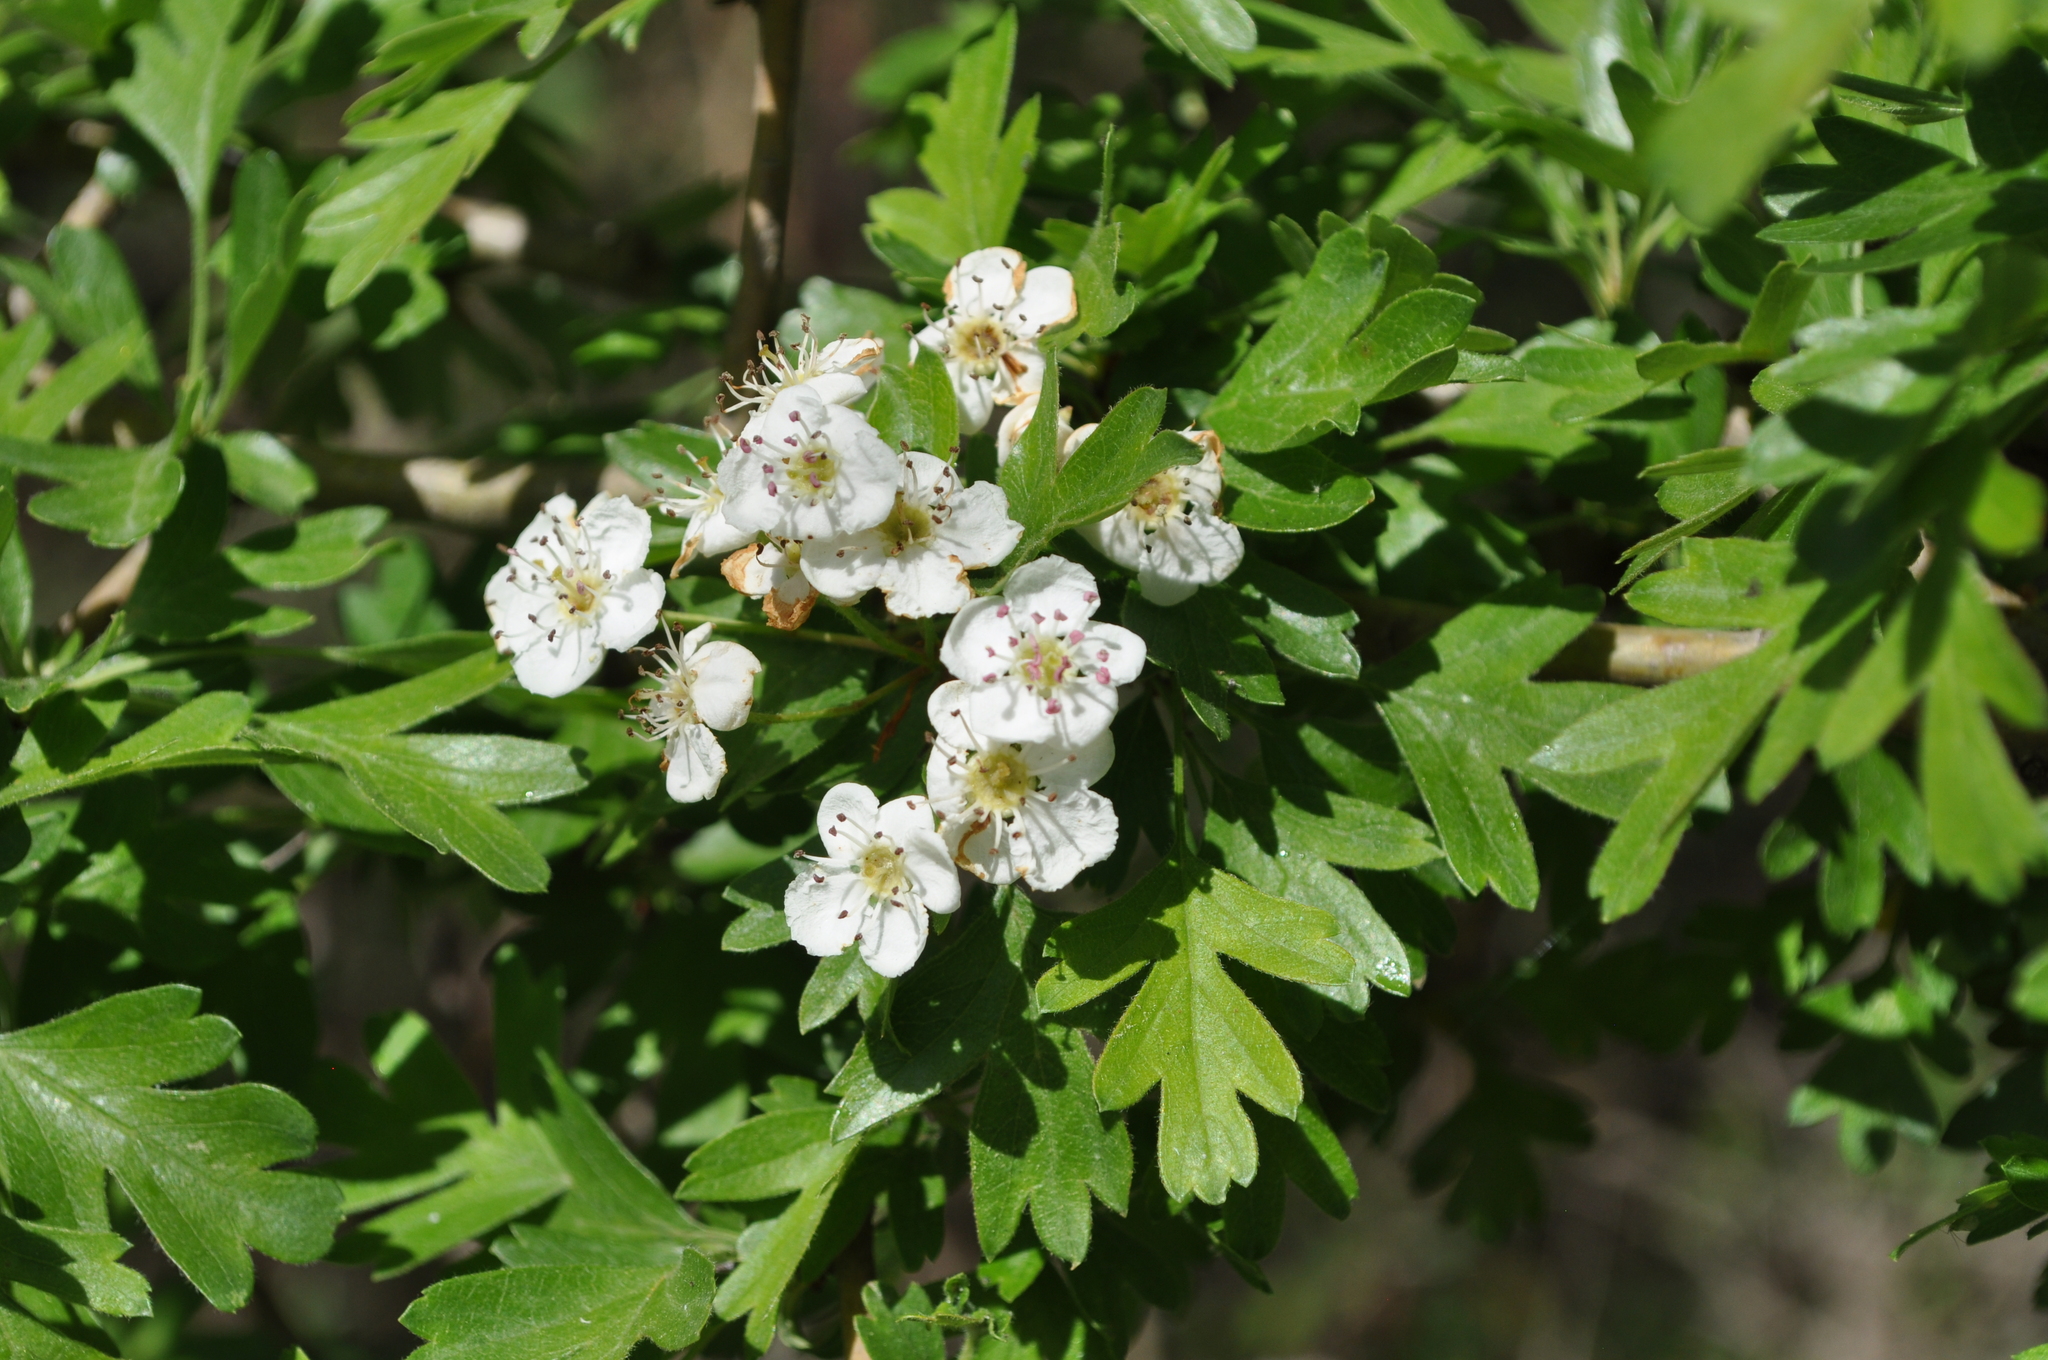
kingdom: Plantae
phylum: Tracheophyta
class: Magnoliopsida
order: Rosales
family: Rosaceae
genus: Crataegus
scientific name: Crataegus monogyna
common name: Hawthorn
